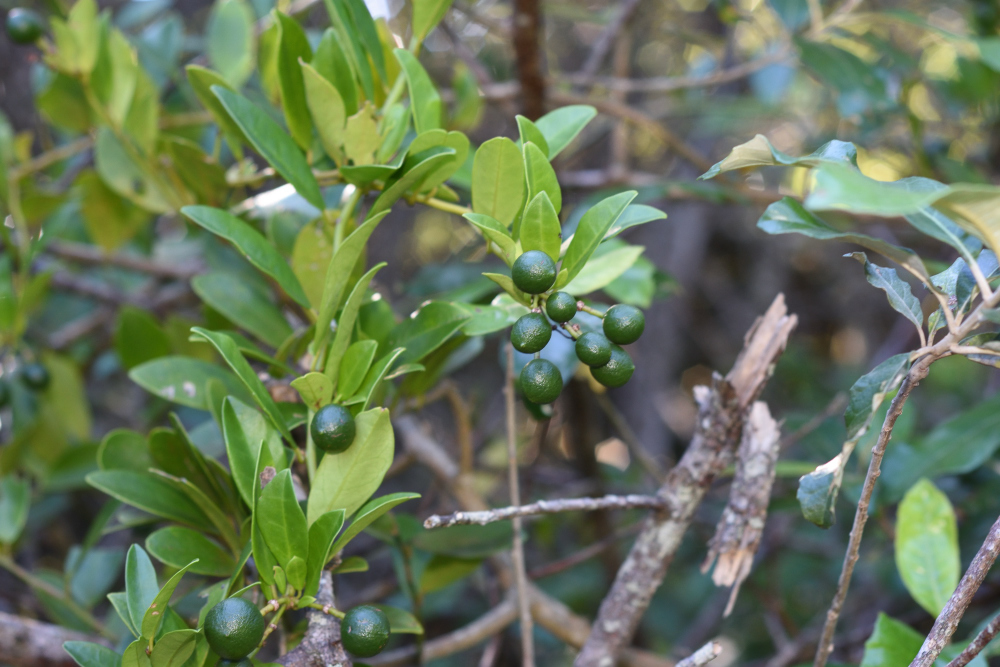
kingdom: Plantae
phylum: Tracheophyta
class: Magnoliopsida
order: Brassicales
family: Capparaceae
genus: Capparis
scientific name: Capparis sepiaria
